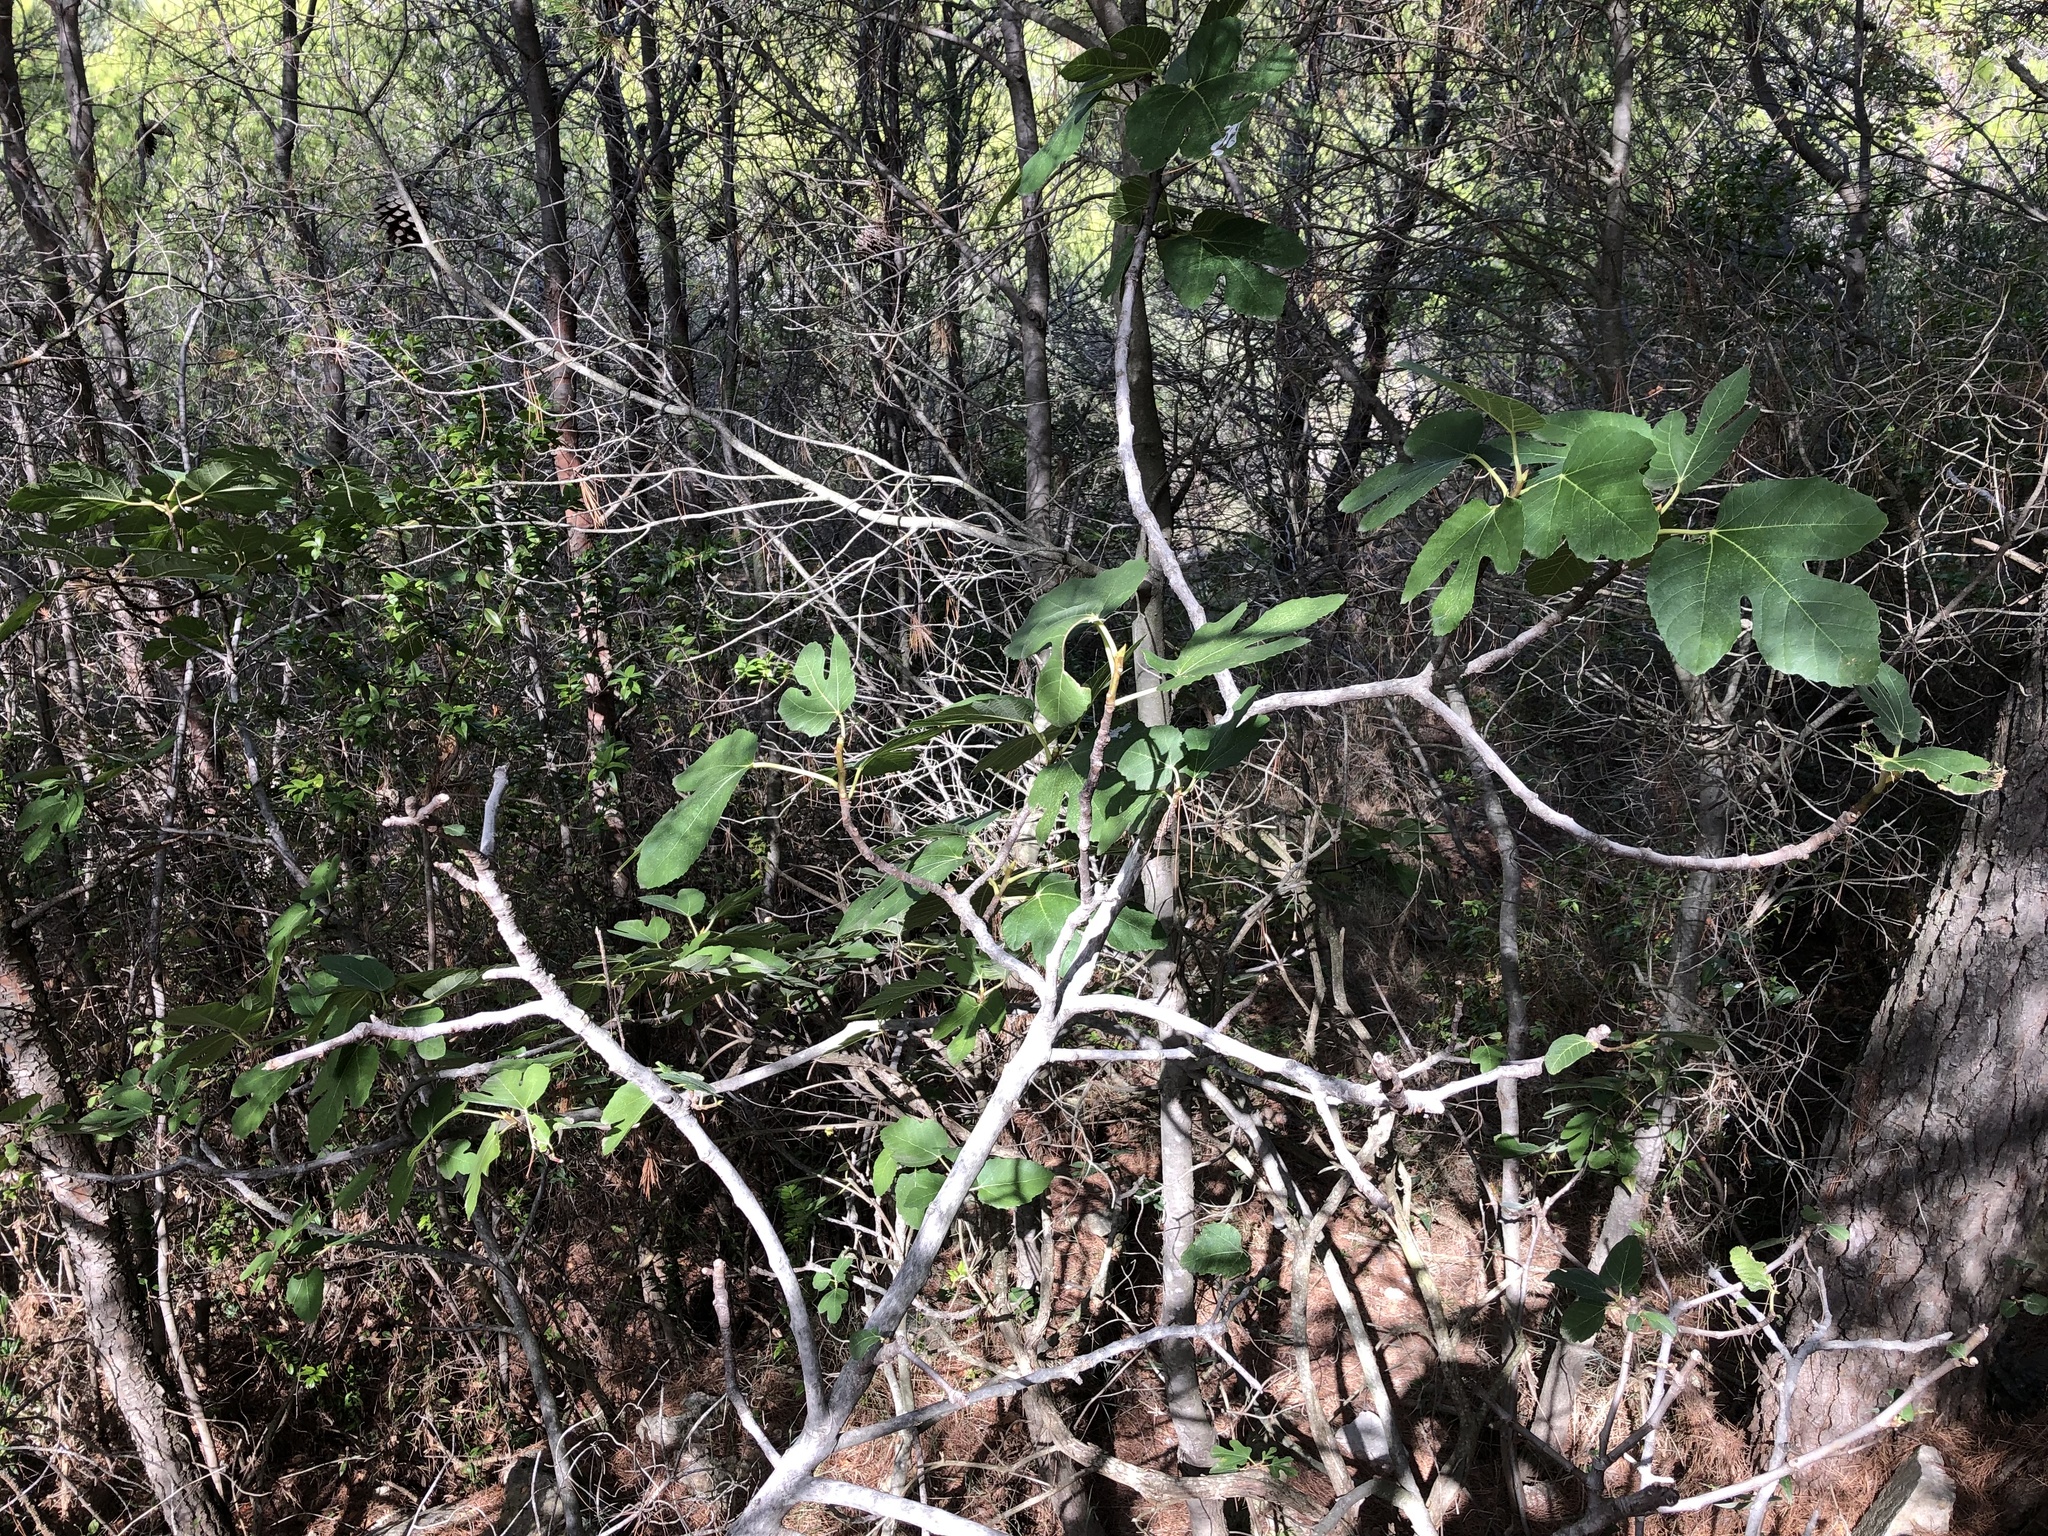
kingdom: Plantae
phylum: Tracheophyta
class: Magnoliopsida
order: Rosales
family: Moraceae
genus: Ficus
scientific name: Ficus carica
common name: Fig
